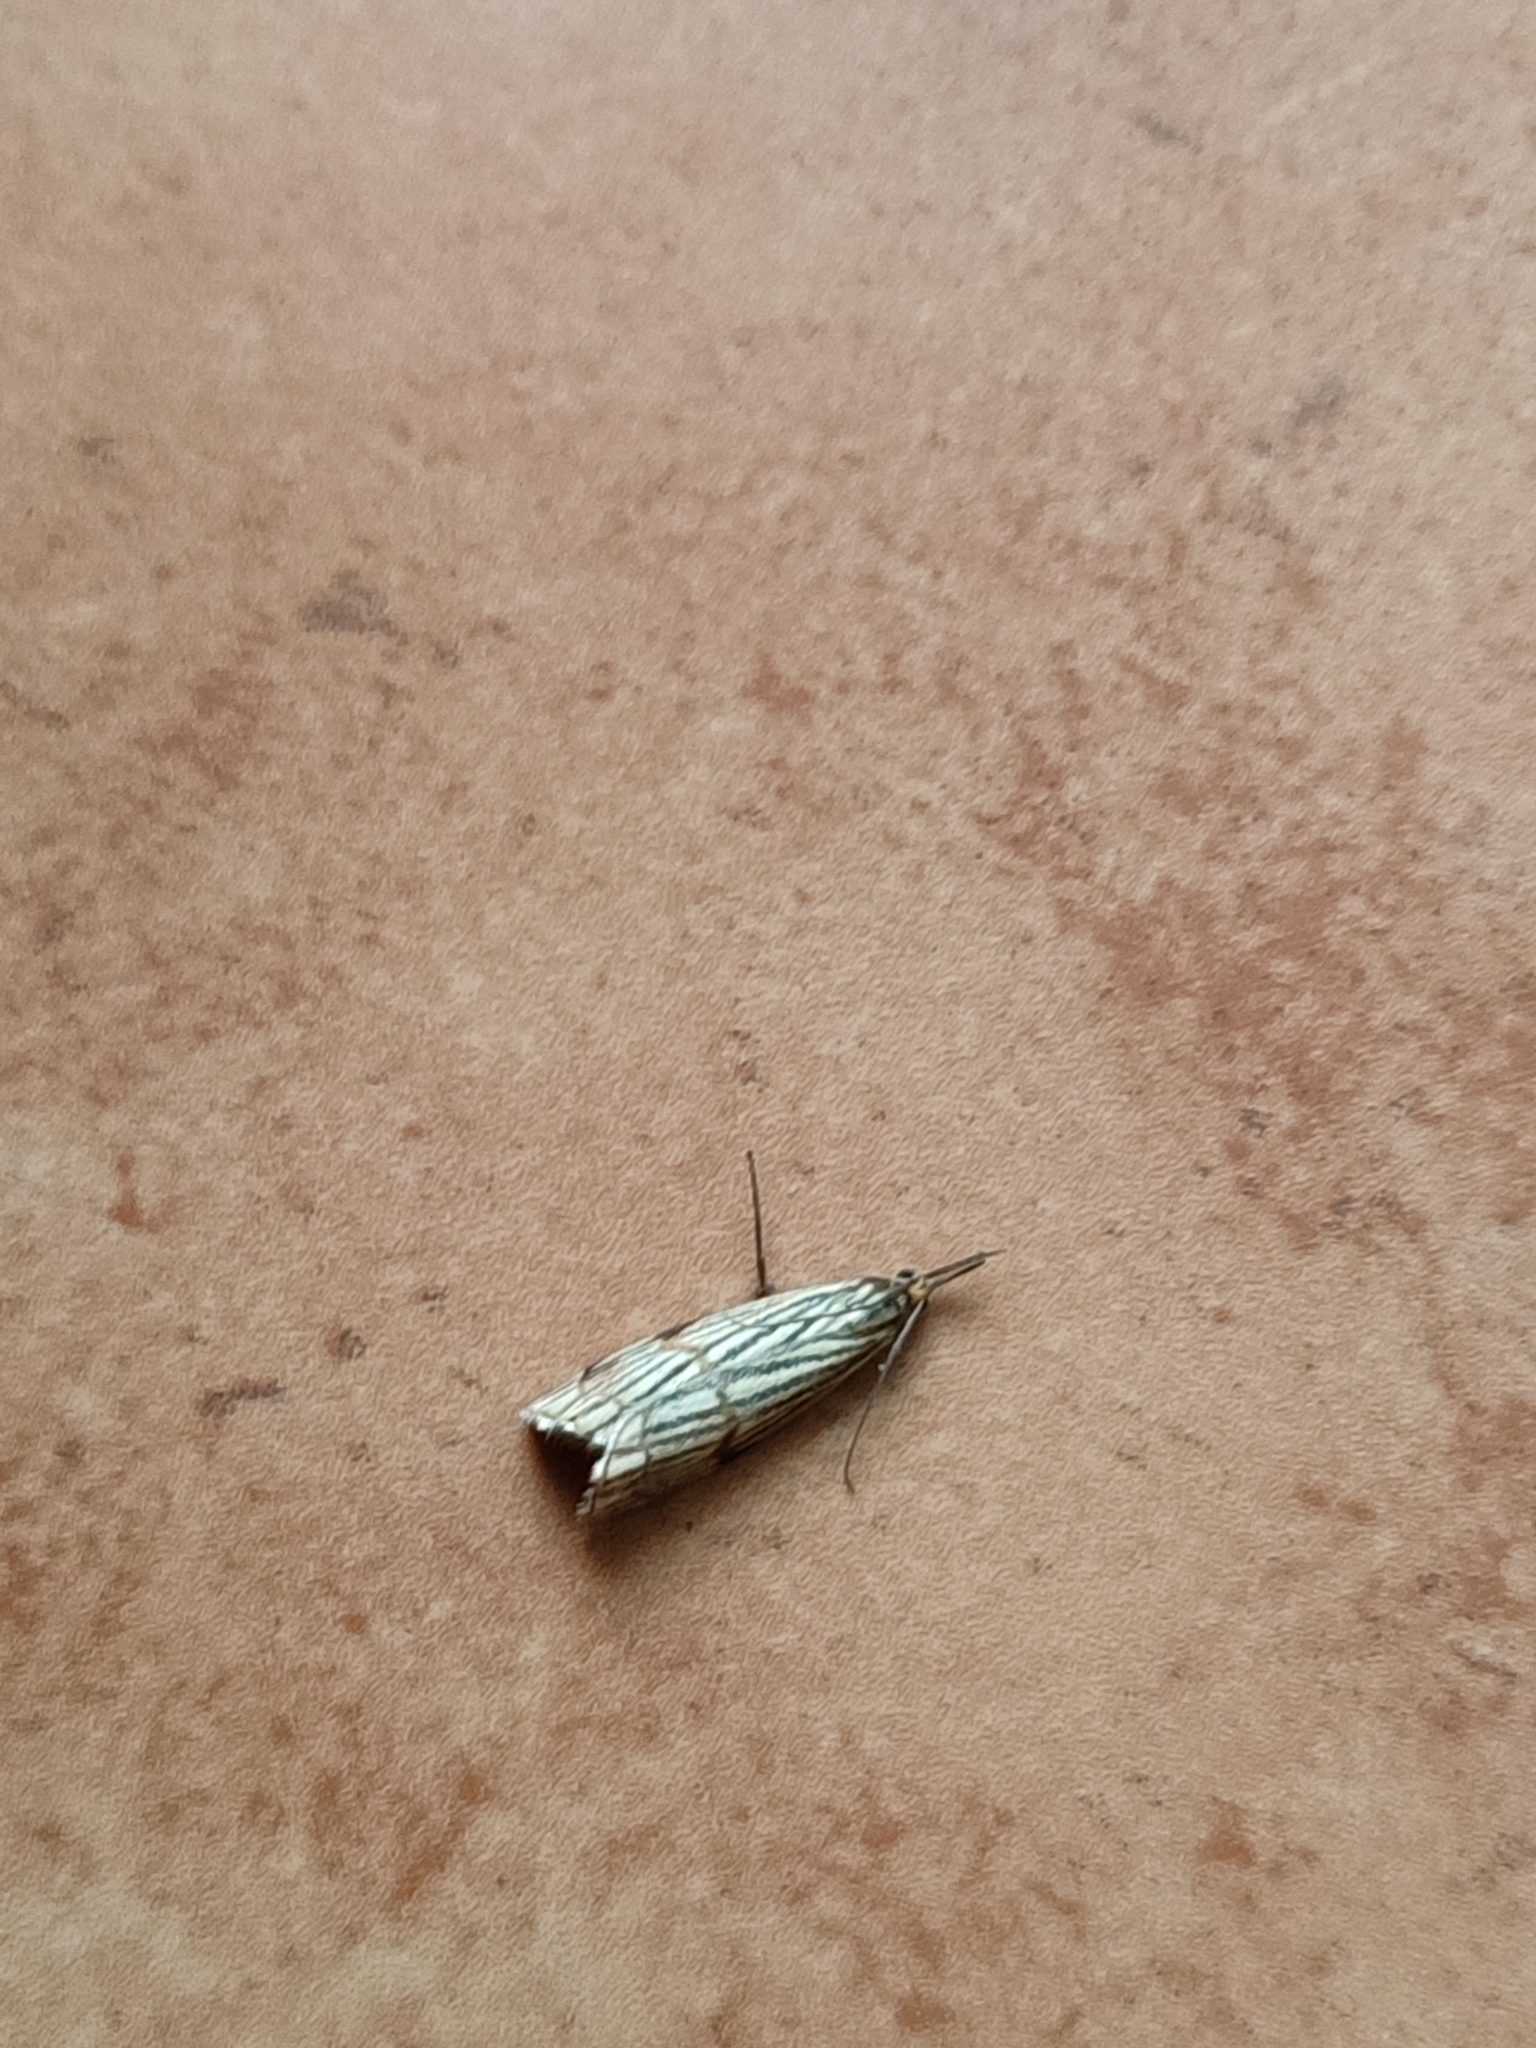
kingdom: Animalia
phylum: Arthropoda
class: Insecta
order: Lepidoptera
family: Crambidae
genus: Chrysocrambus
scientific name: Chrysocrambus linetella
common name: Orange-bar grass-veneer
